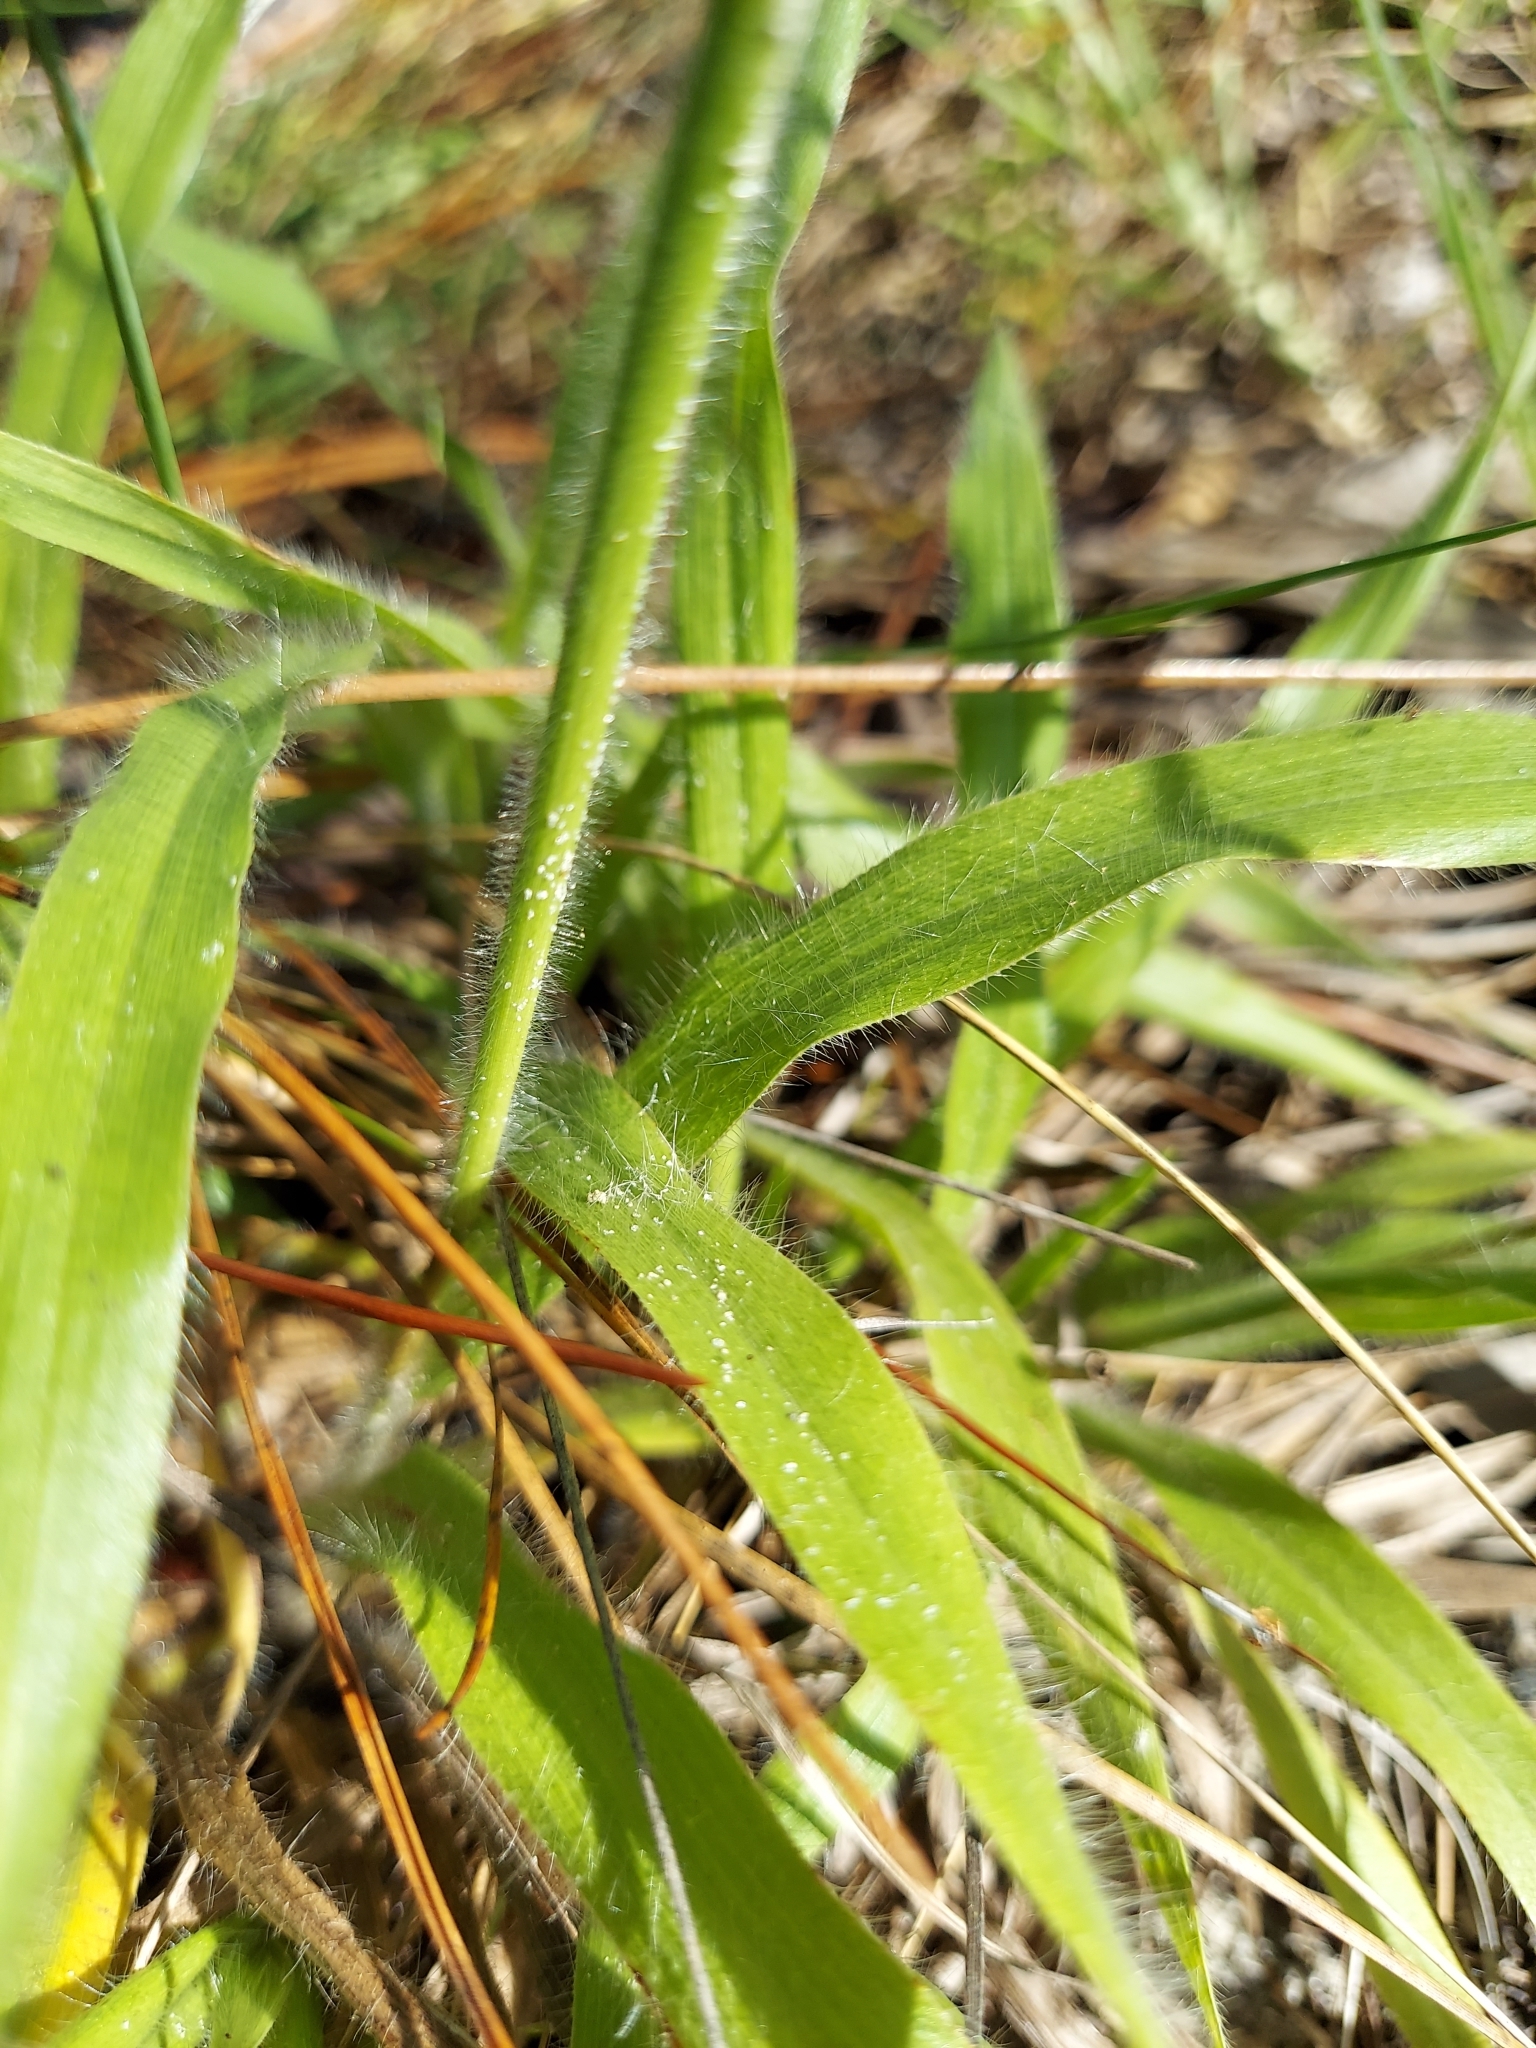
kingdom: Plantae
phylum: Tracheophyta
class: Liliopsida
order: Poales
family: Poaceae
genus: Paspalum
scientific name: Paspalum setaceum
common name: Slender paspalum
